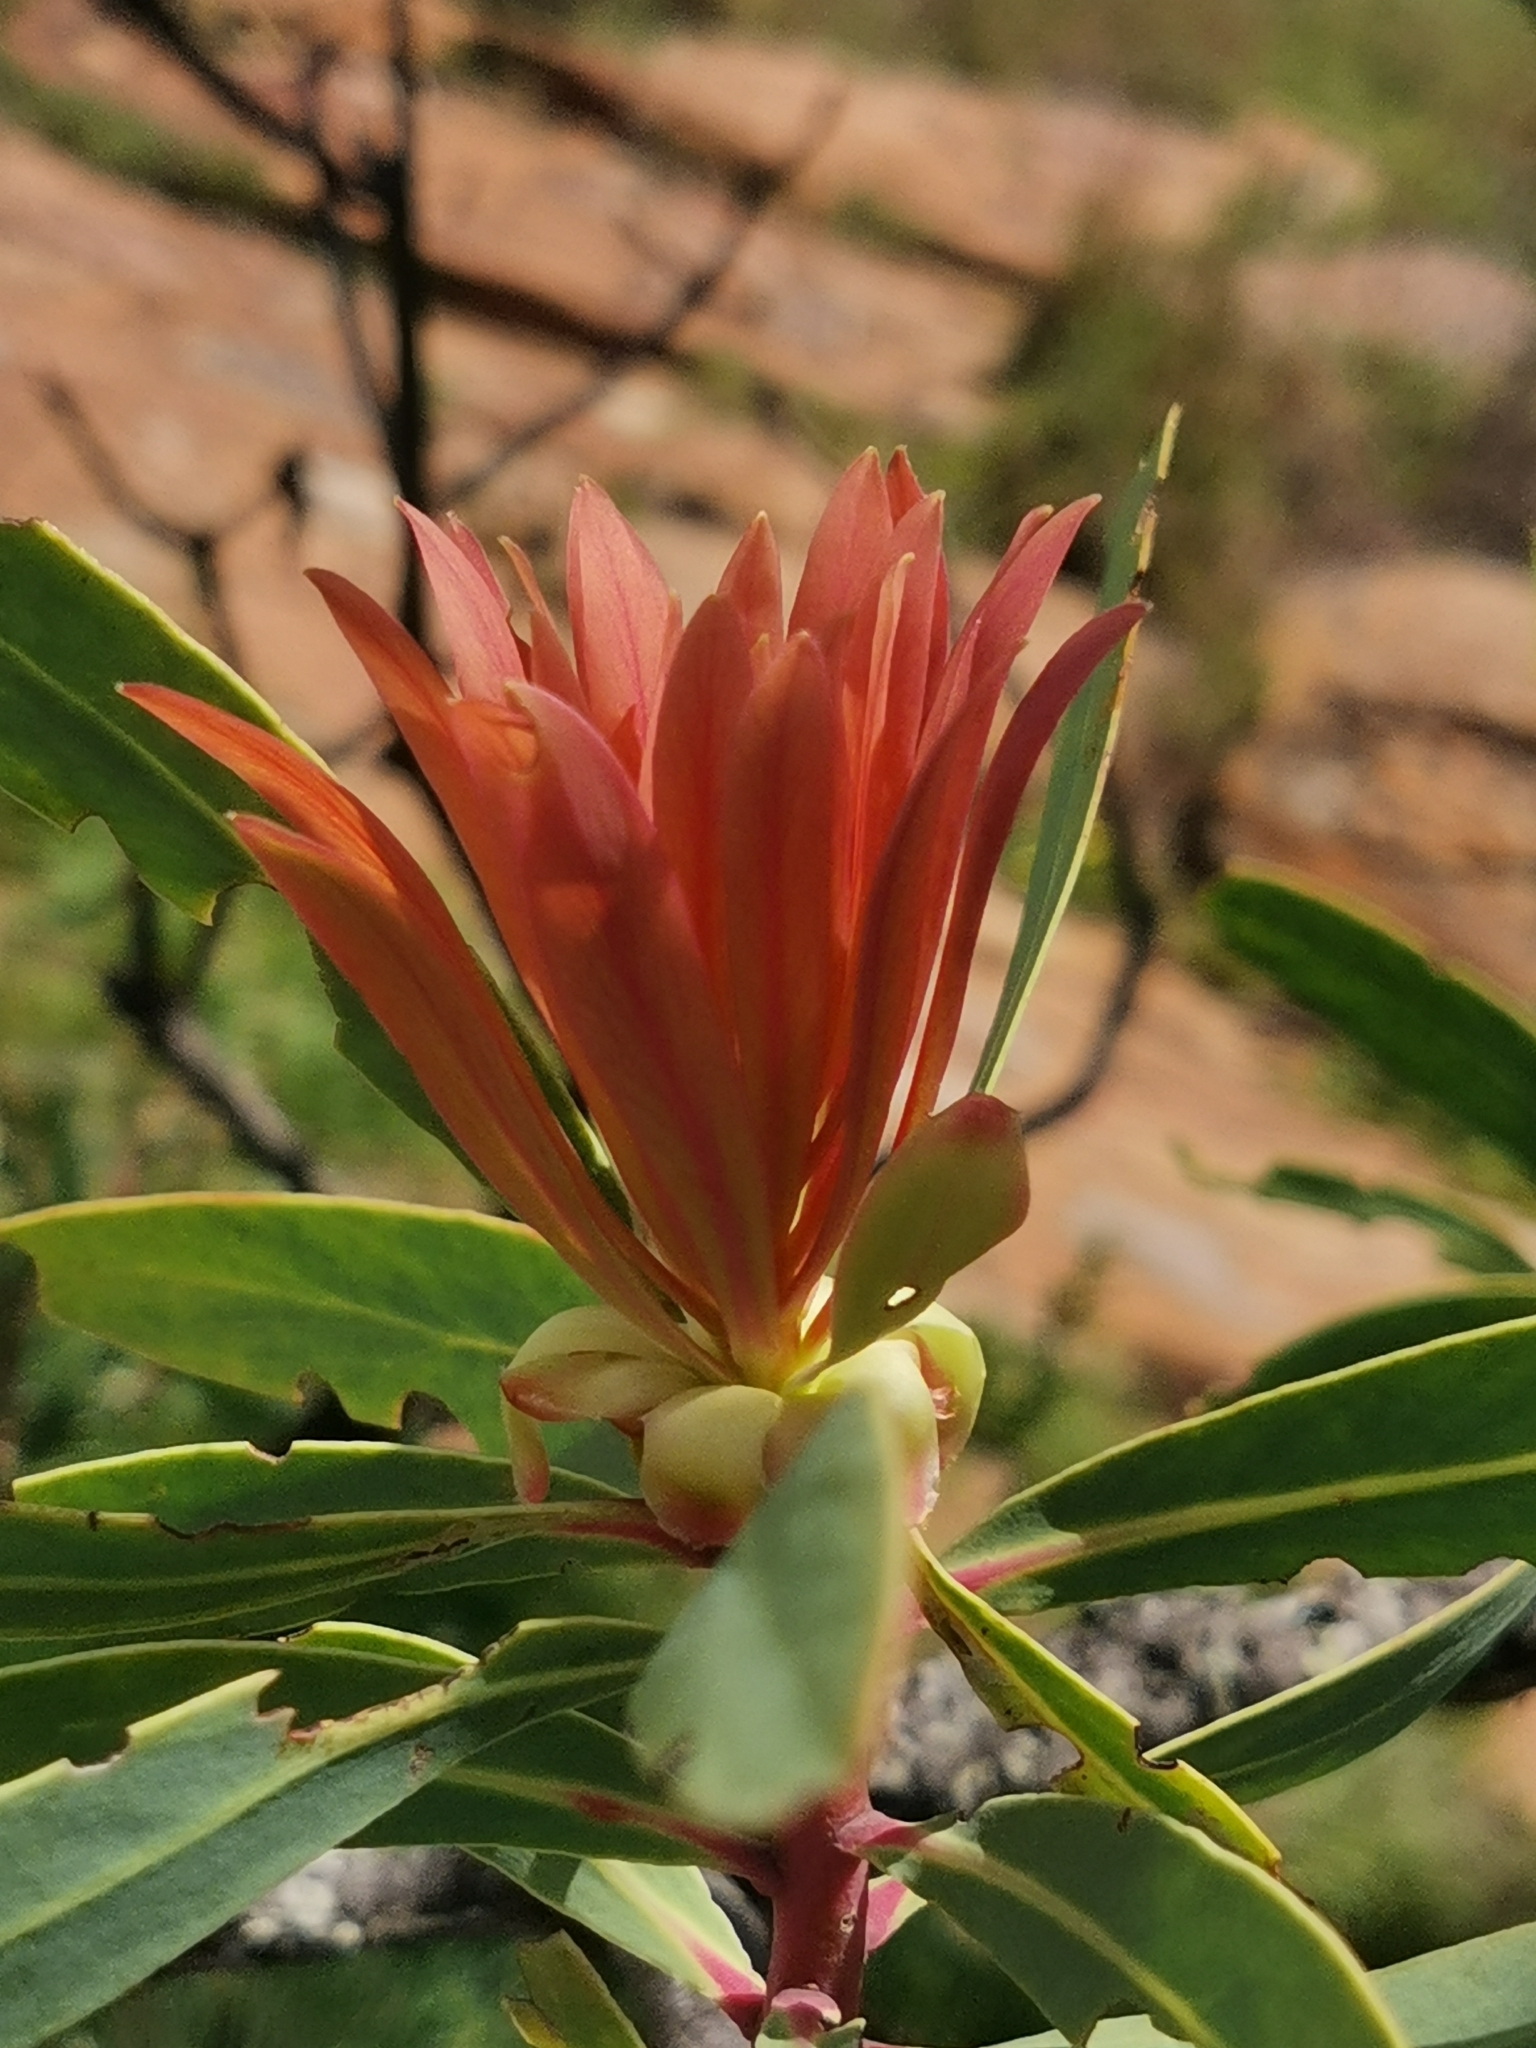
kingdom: Plantae
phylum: Tracheophyta
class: Magnoliopsida
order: Proteales
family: Proteaceae
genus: Protea
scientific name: Protea caffra
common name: Common sugarbush
